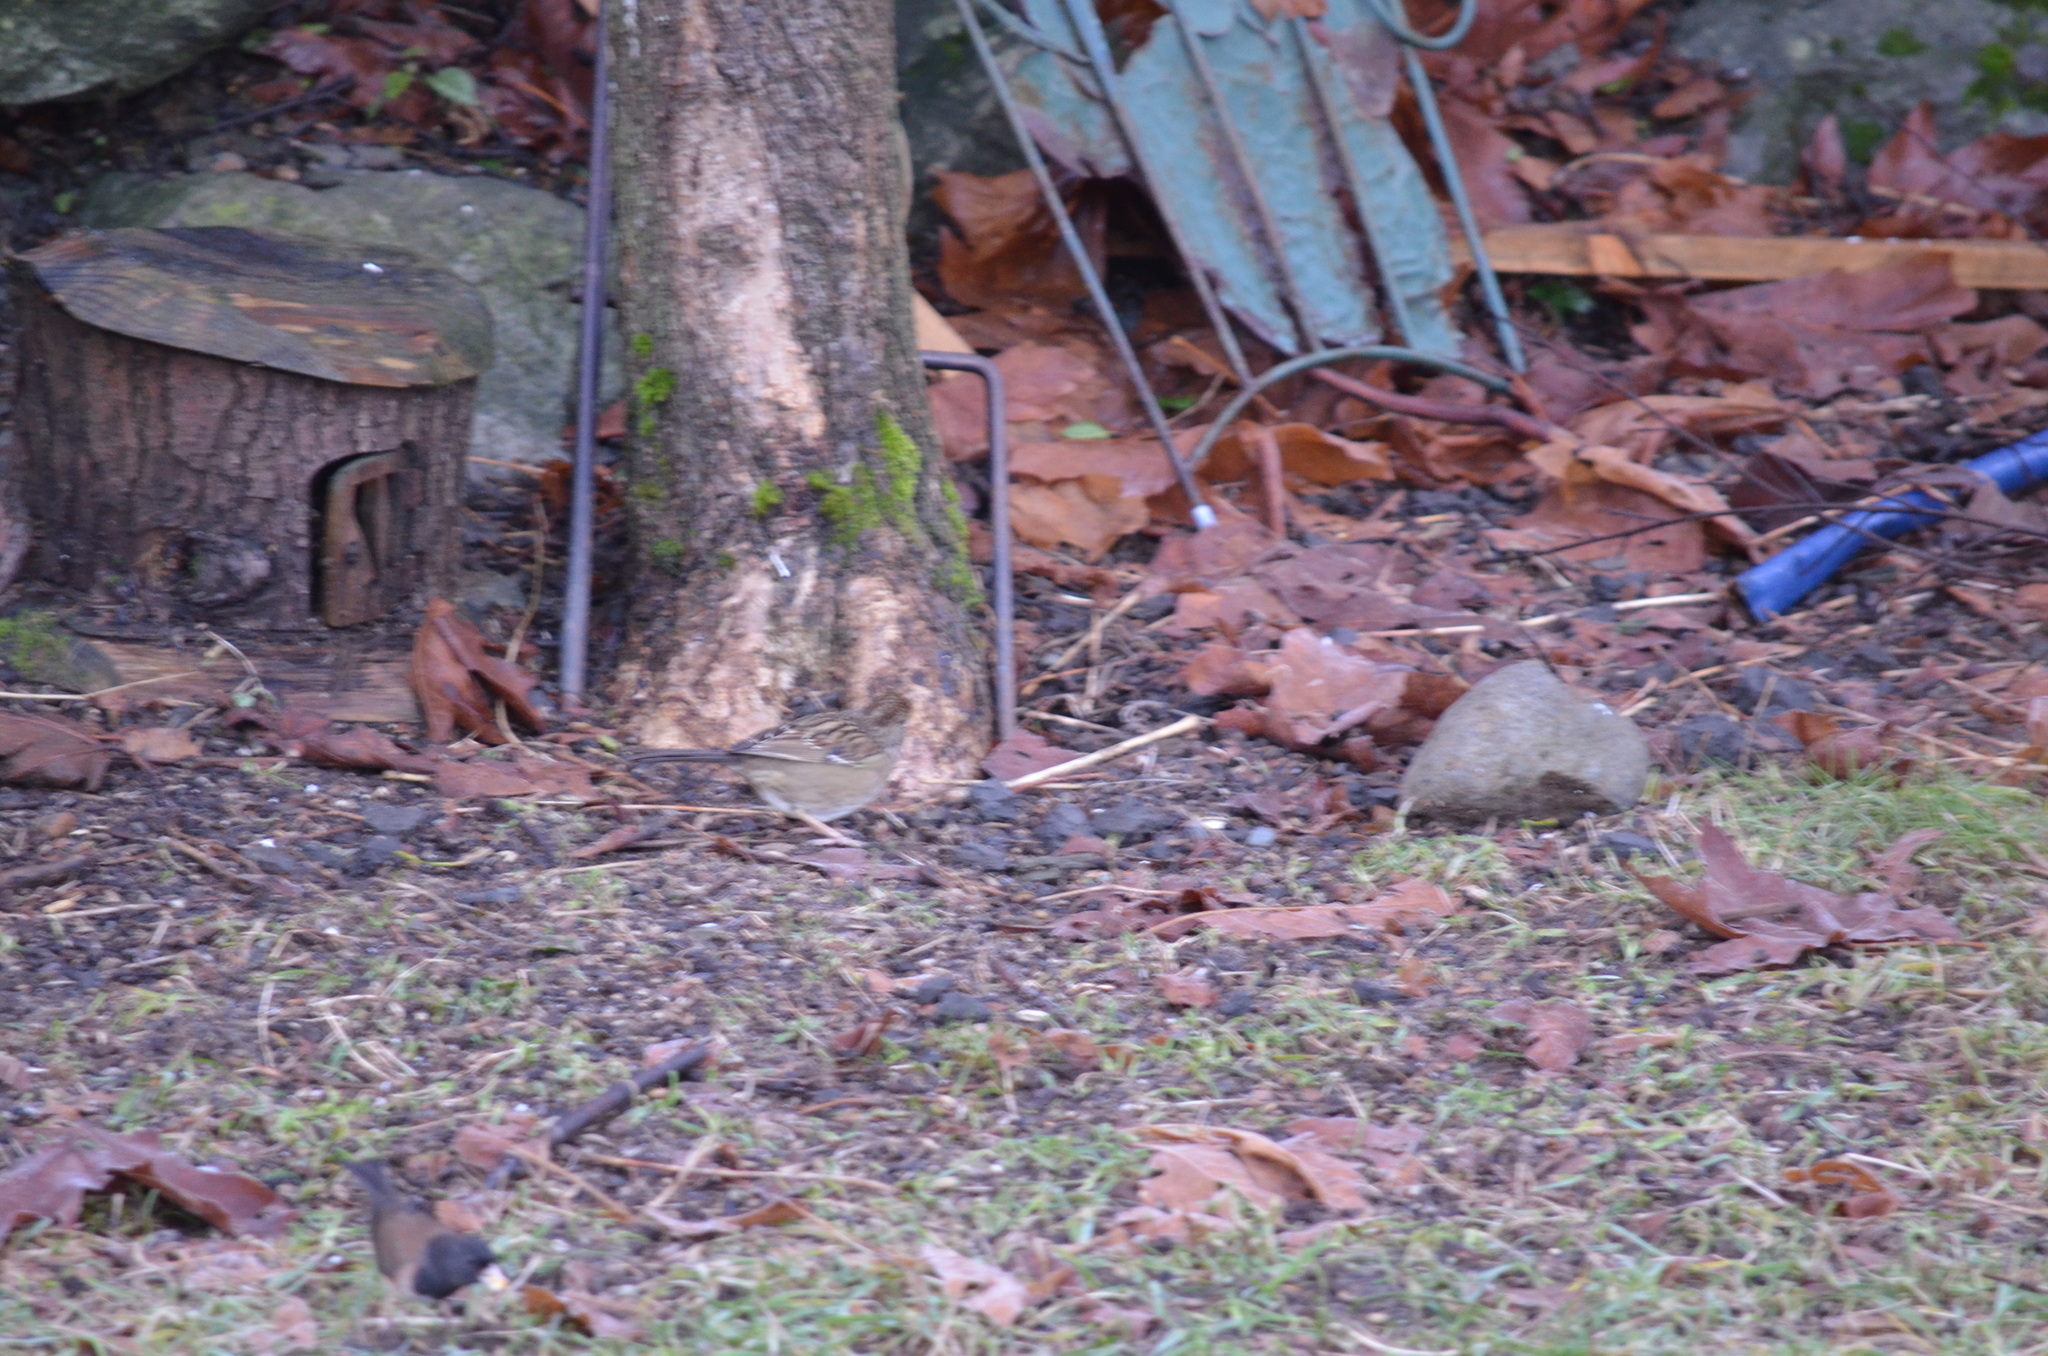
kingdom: Animalia
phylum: Chordata
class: Aves
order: Passeriformes
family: Passerellidae
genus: Zonotrichia
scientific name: Zonotrichia atricapilla
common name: Golden-crowned sparrow
